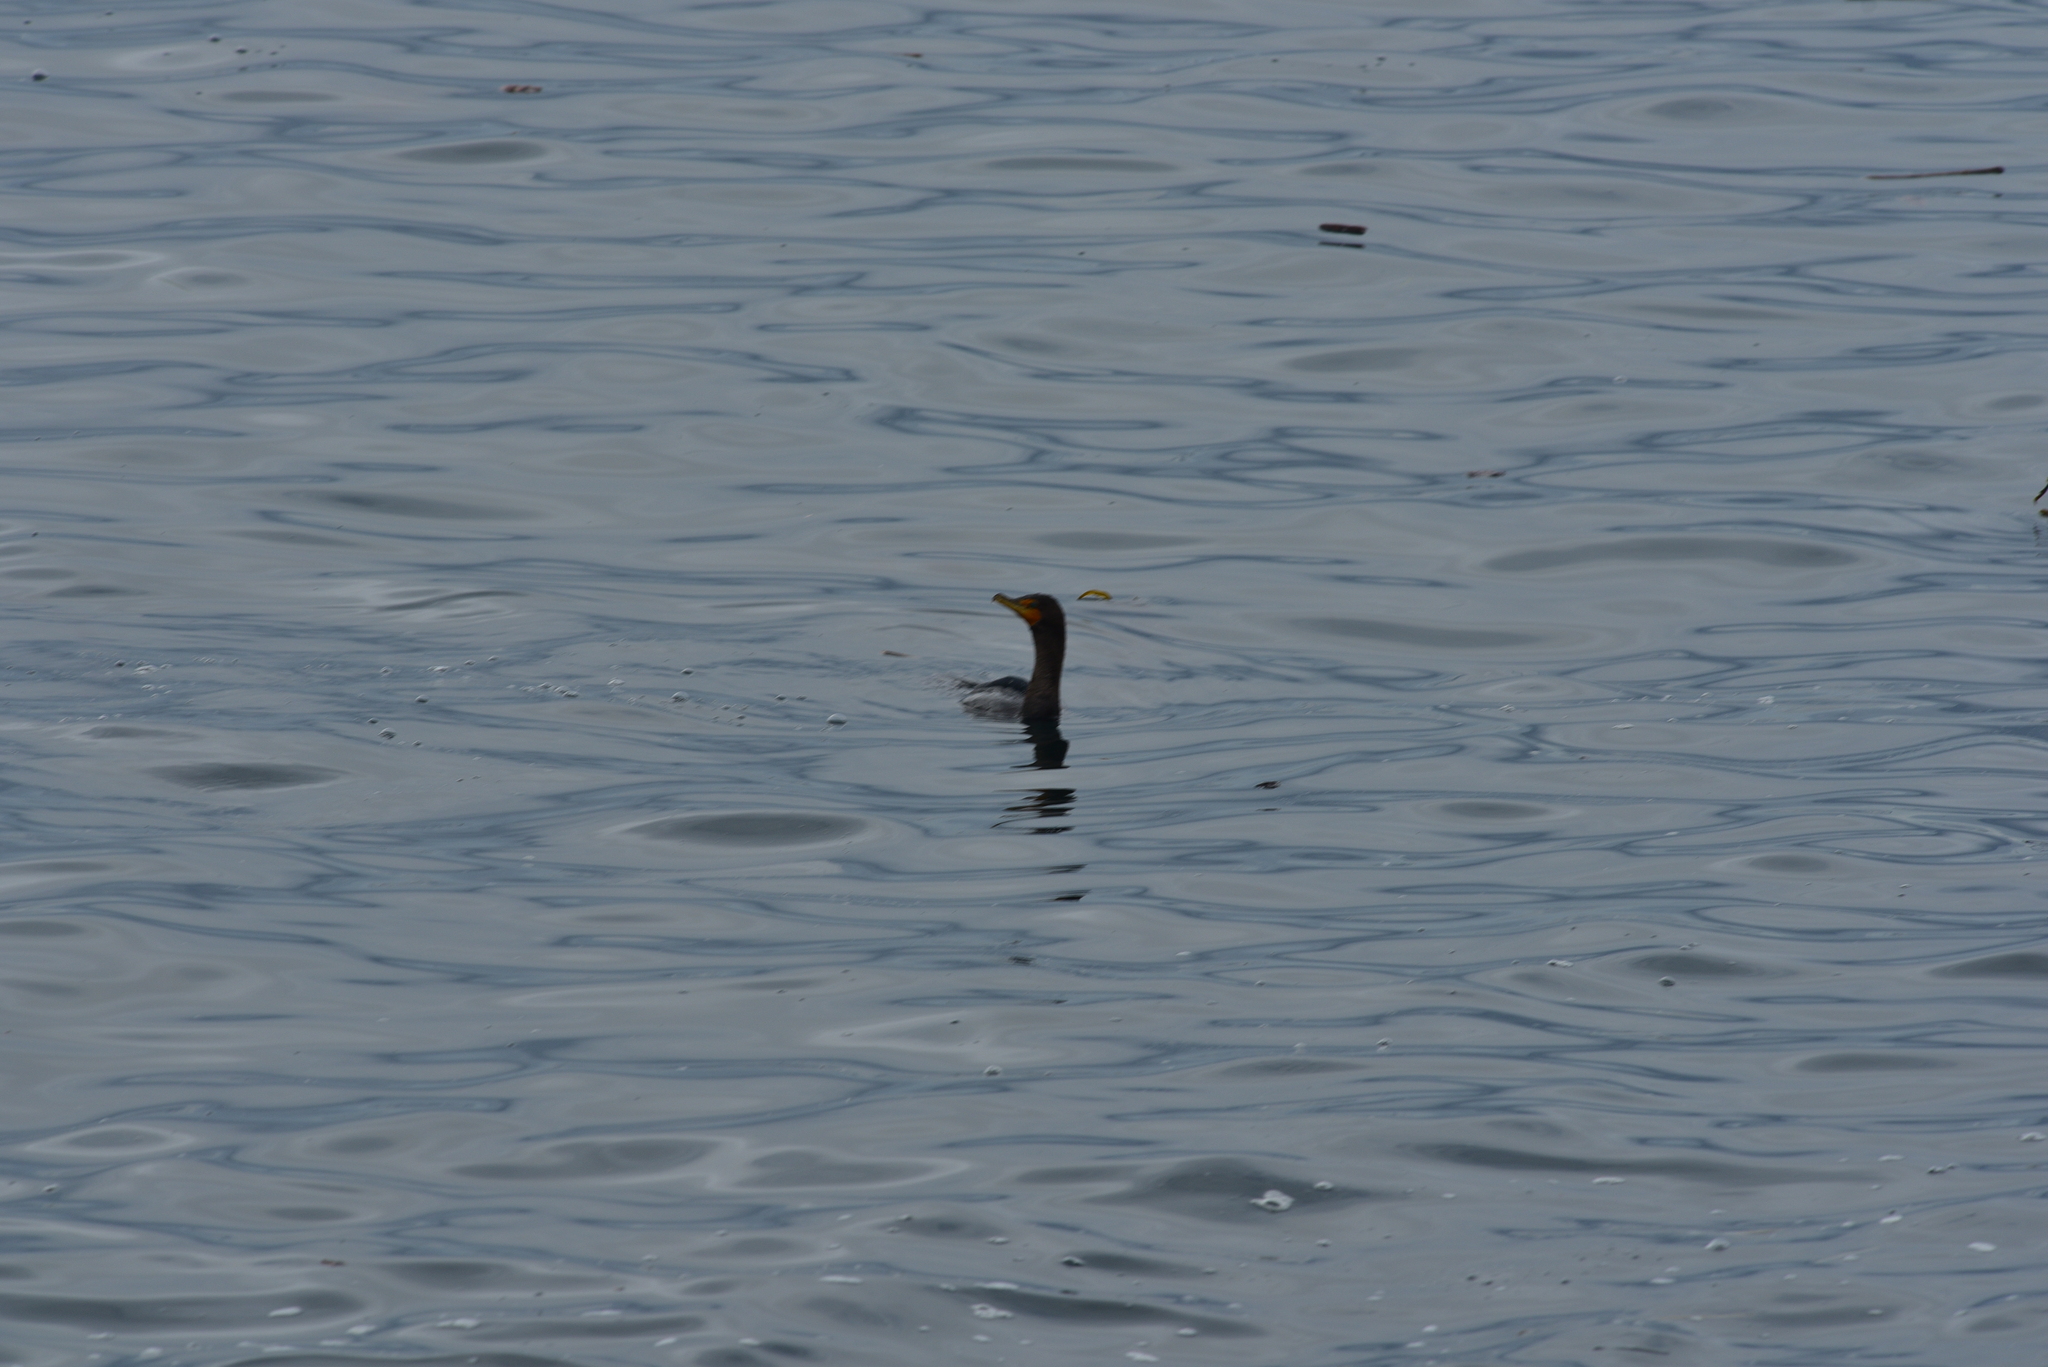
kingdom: Animalia
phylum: Chordata
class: Aves
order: Suliformes
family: Phalacrocoracidae
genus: Phalacrocorax
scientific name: Phalacrocorax auritus
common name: Double-crested cormorant
